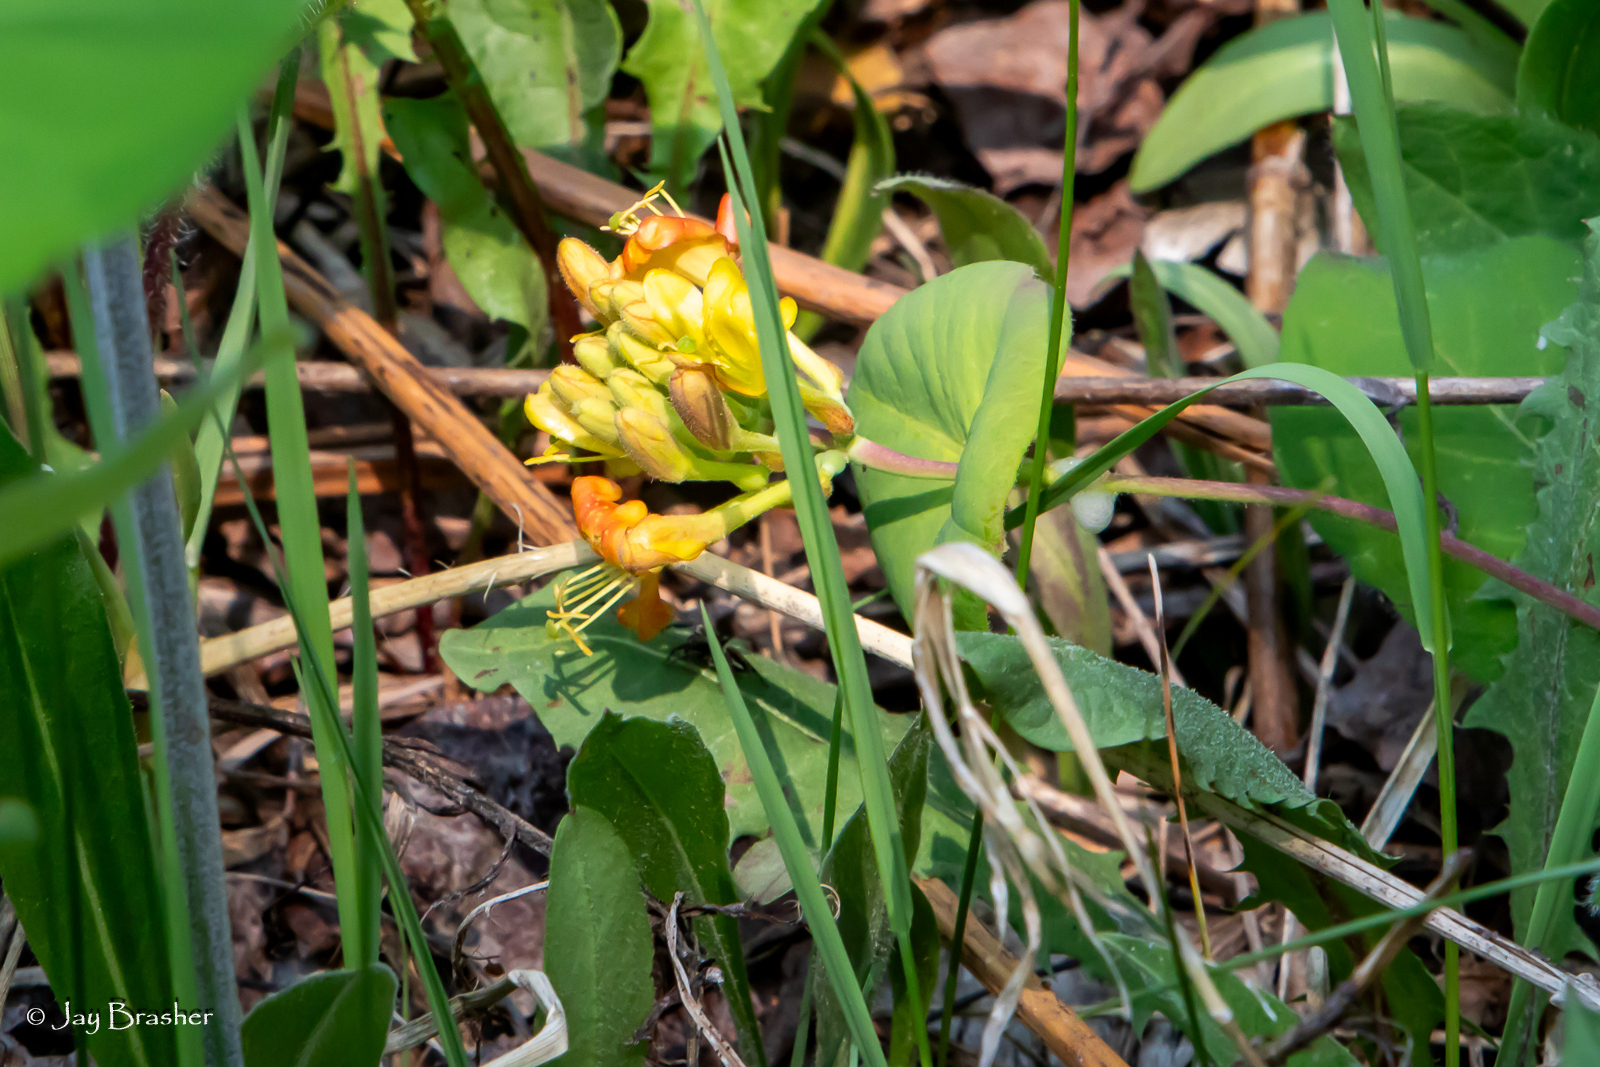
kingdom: Plantae
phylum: Tracheophyta
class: Magnoliopsida
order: Dipsacales
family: Caprifoliaceae
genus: Lonicera
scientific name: Lonicera hirsuta
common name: Hairy honeysuckle
